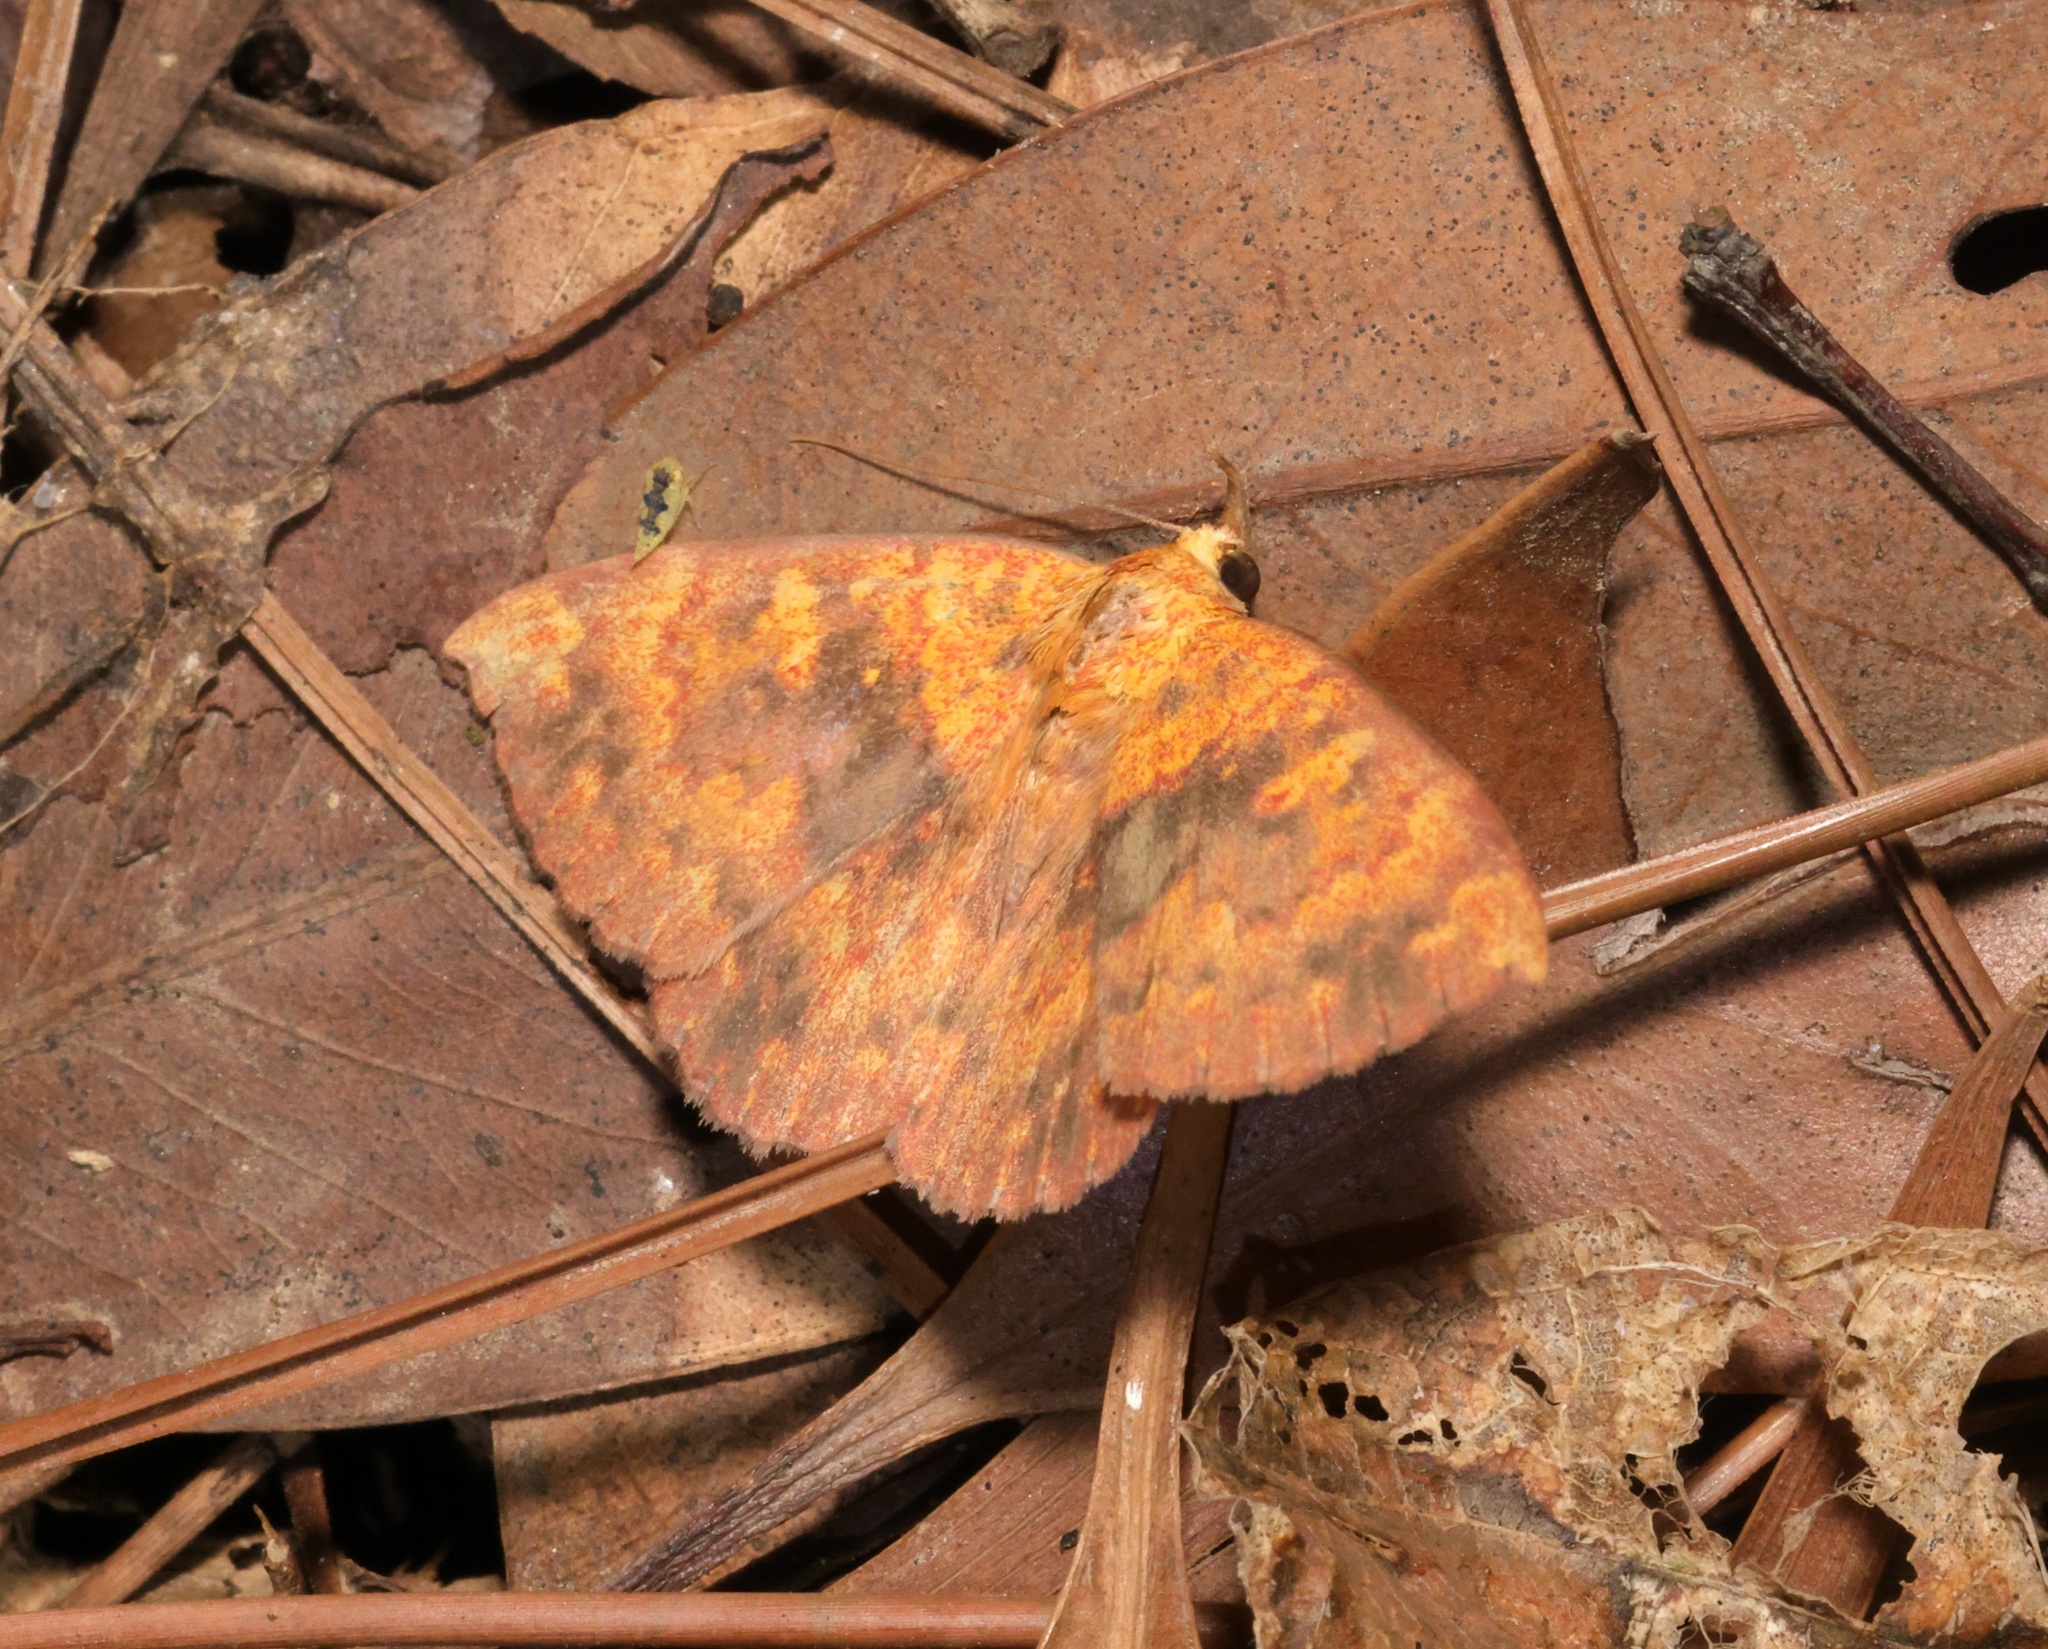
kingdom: Animalia
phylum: Arthropoda
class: Insecta
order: Lepidoptera
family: Erebidae
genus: Singara
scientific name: Singara diversalis
